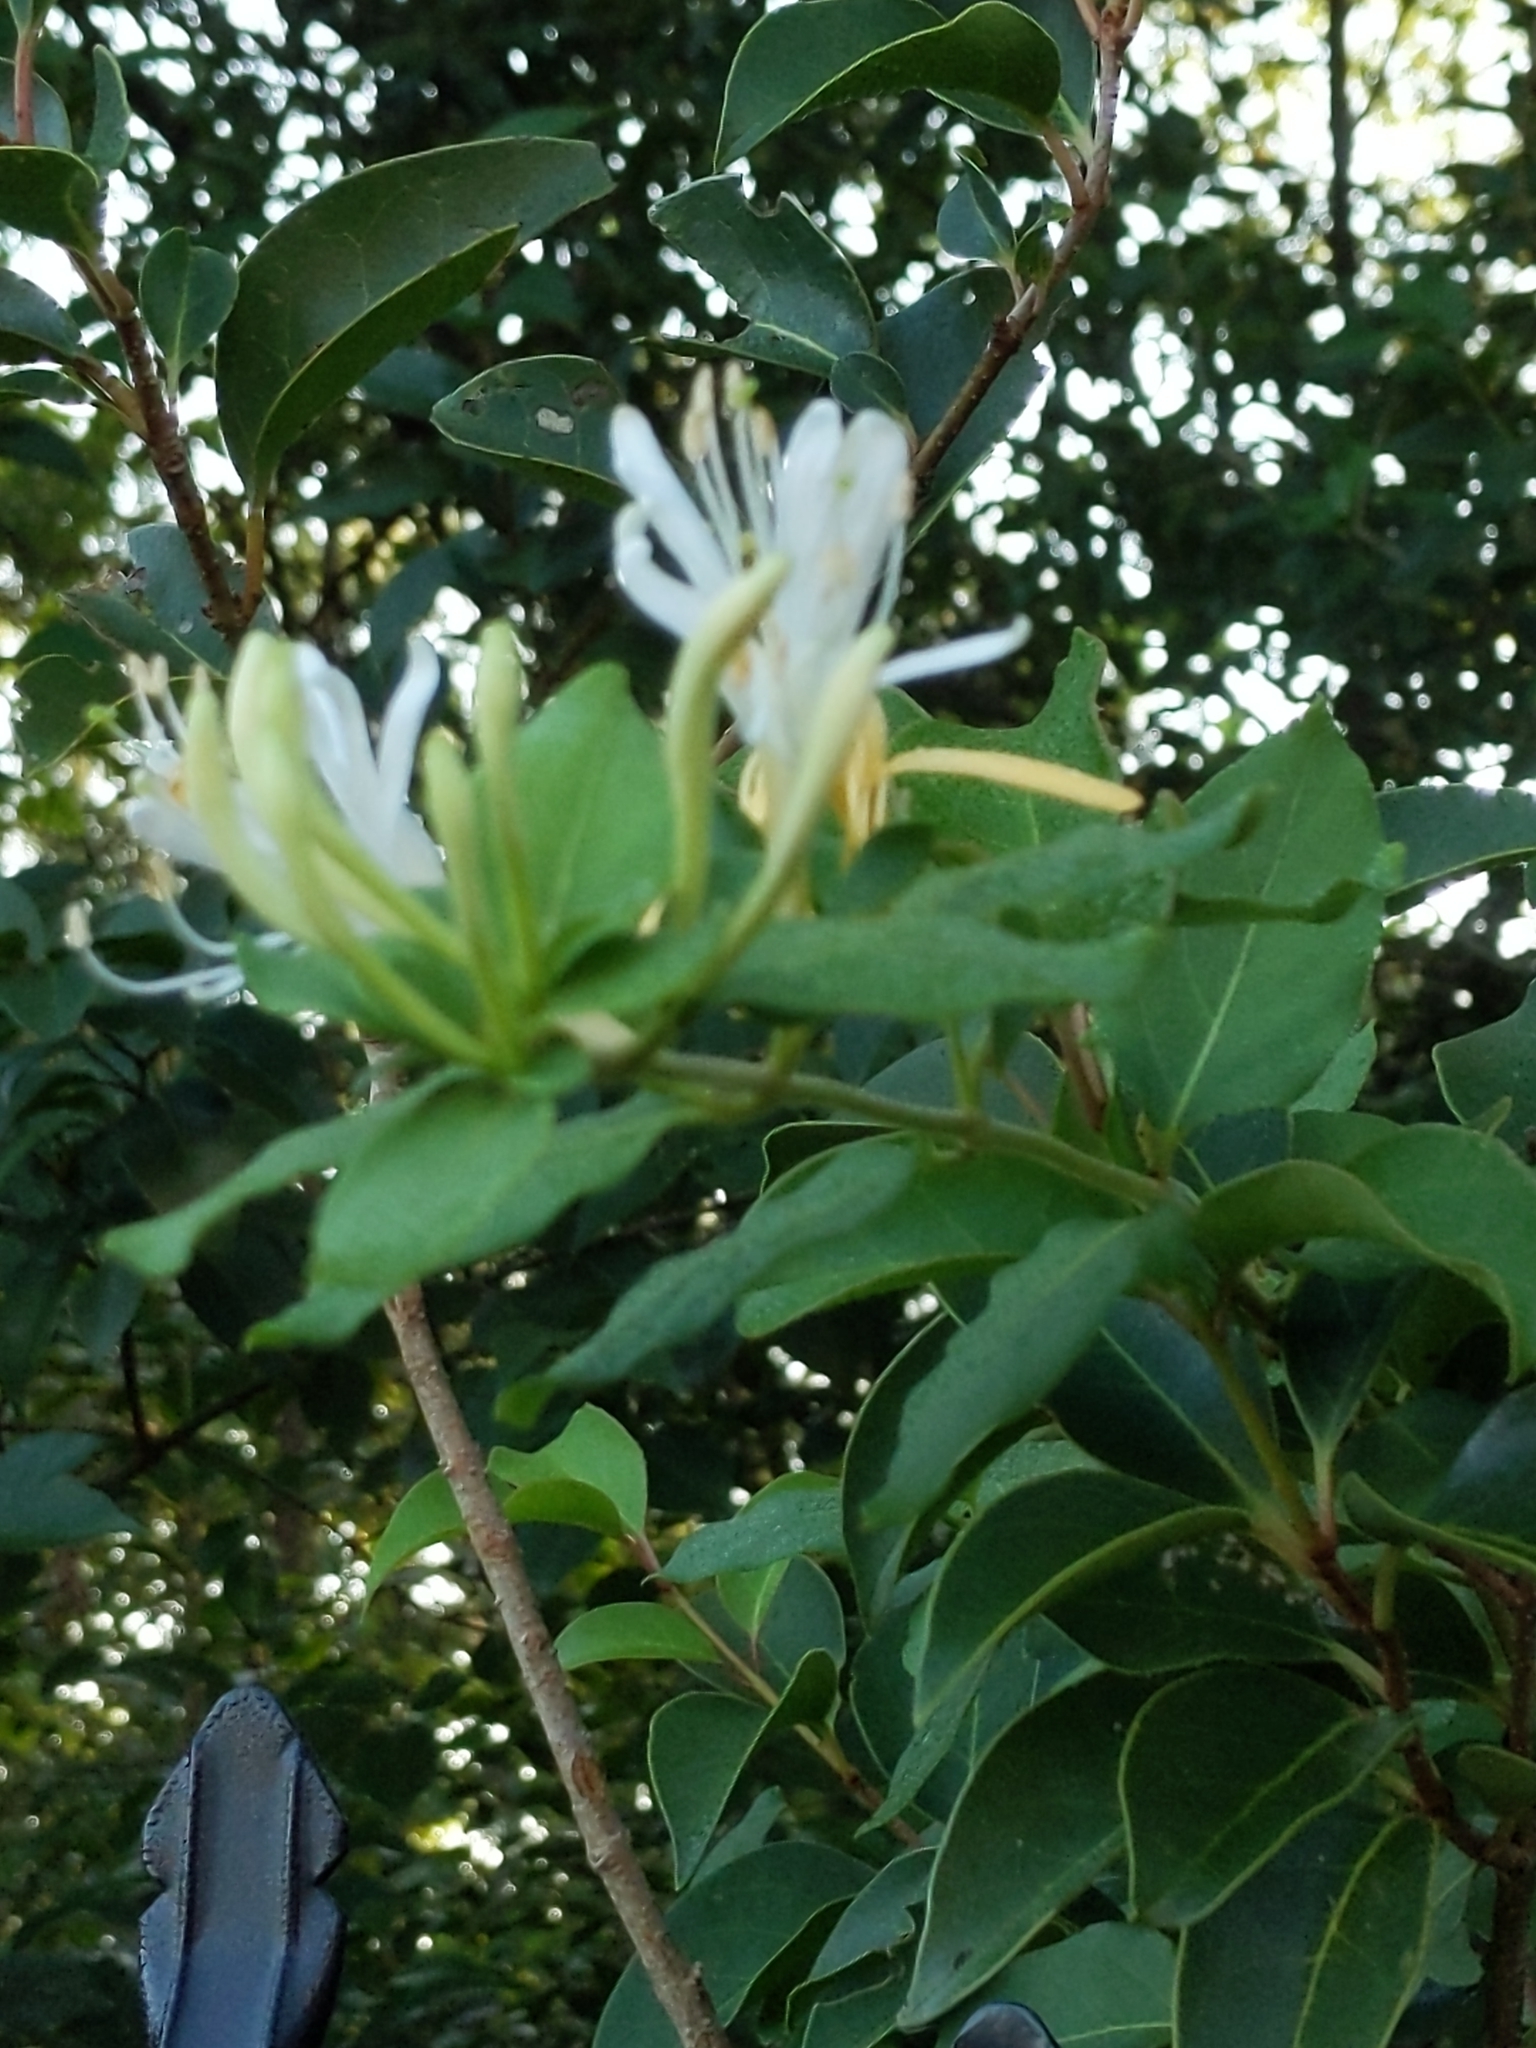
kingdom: Plantae
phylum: Tracheophyta
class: Magnoliopsida
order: Dipsacales
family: Caprifoliaceae
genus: Lonicera
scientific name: Lonicera japonica
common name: Japanese honeysuckle
